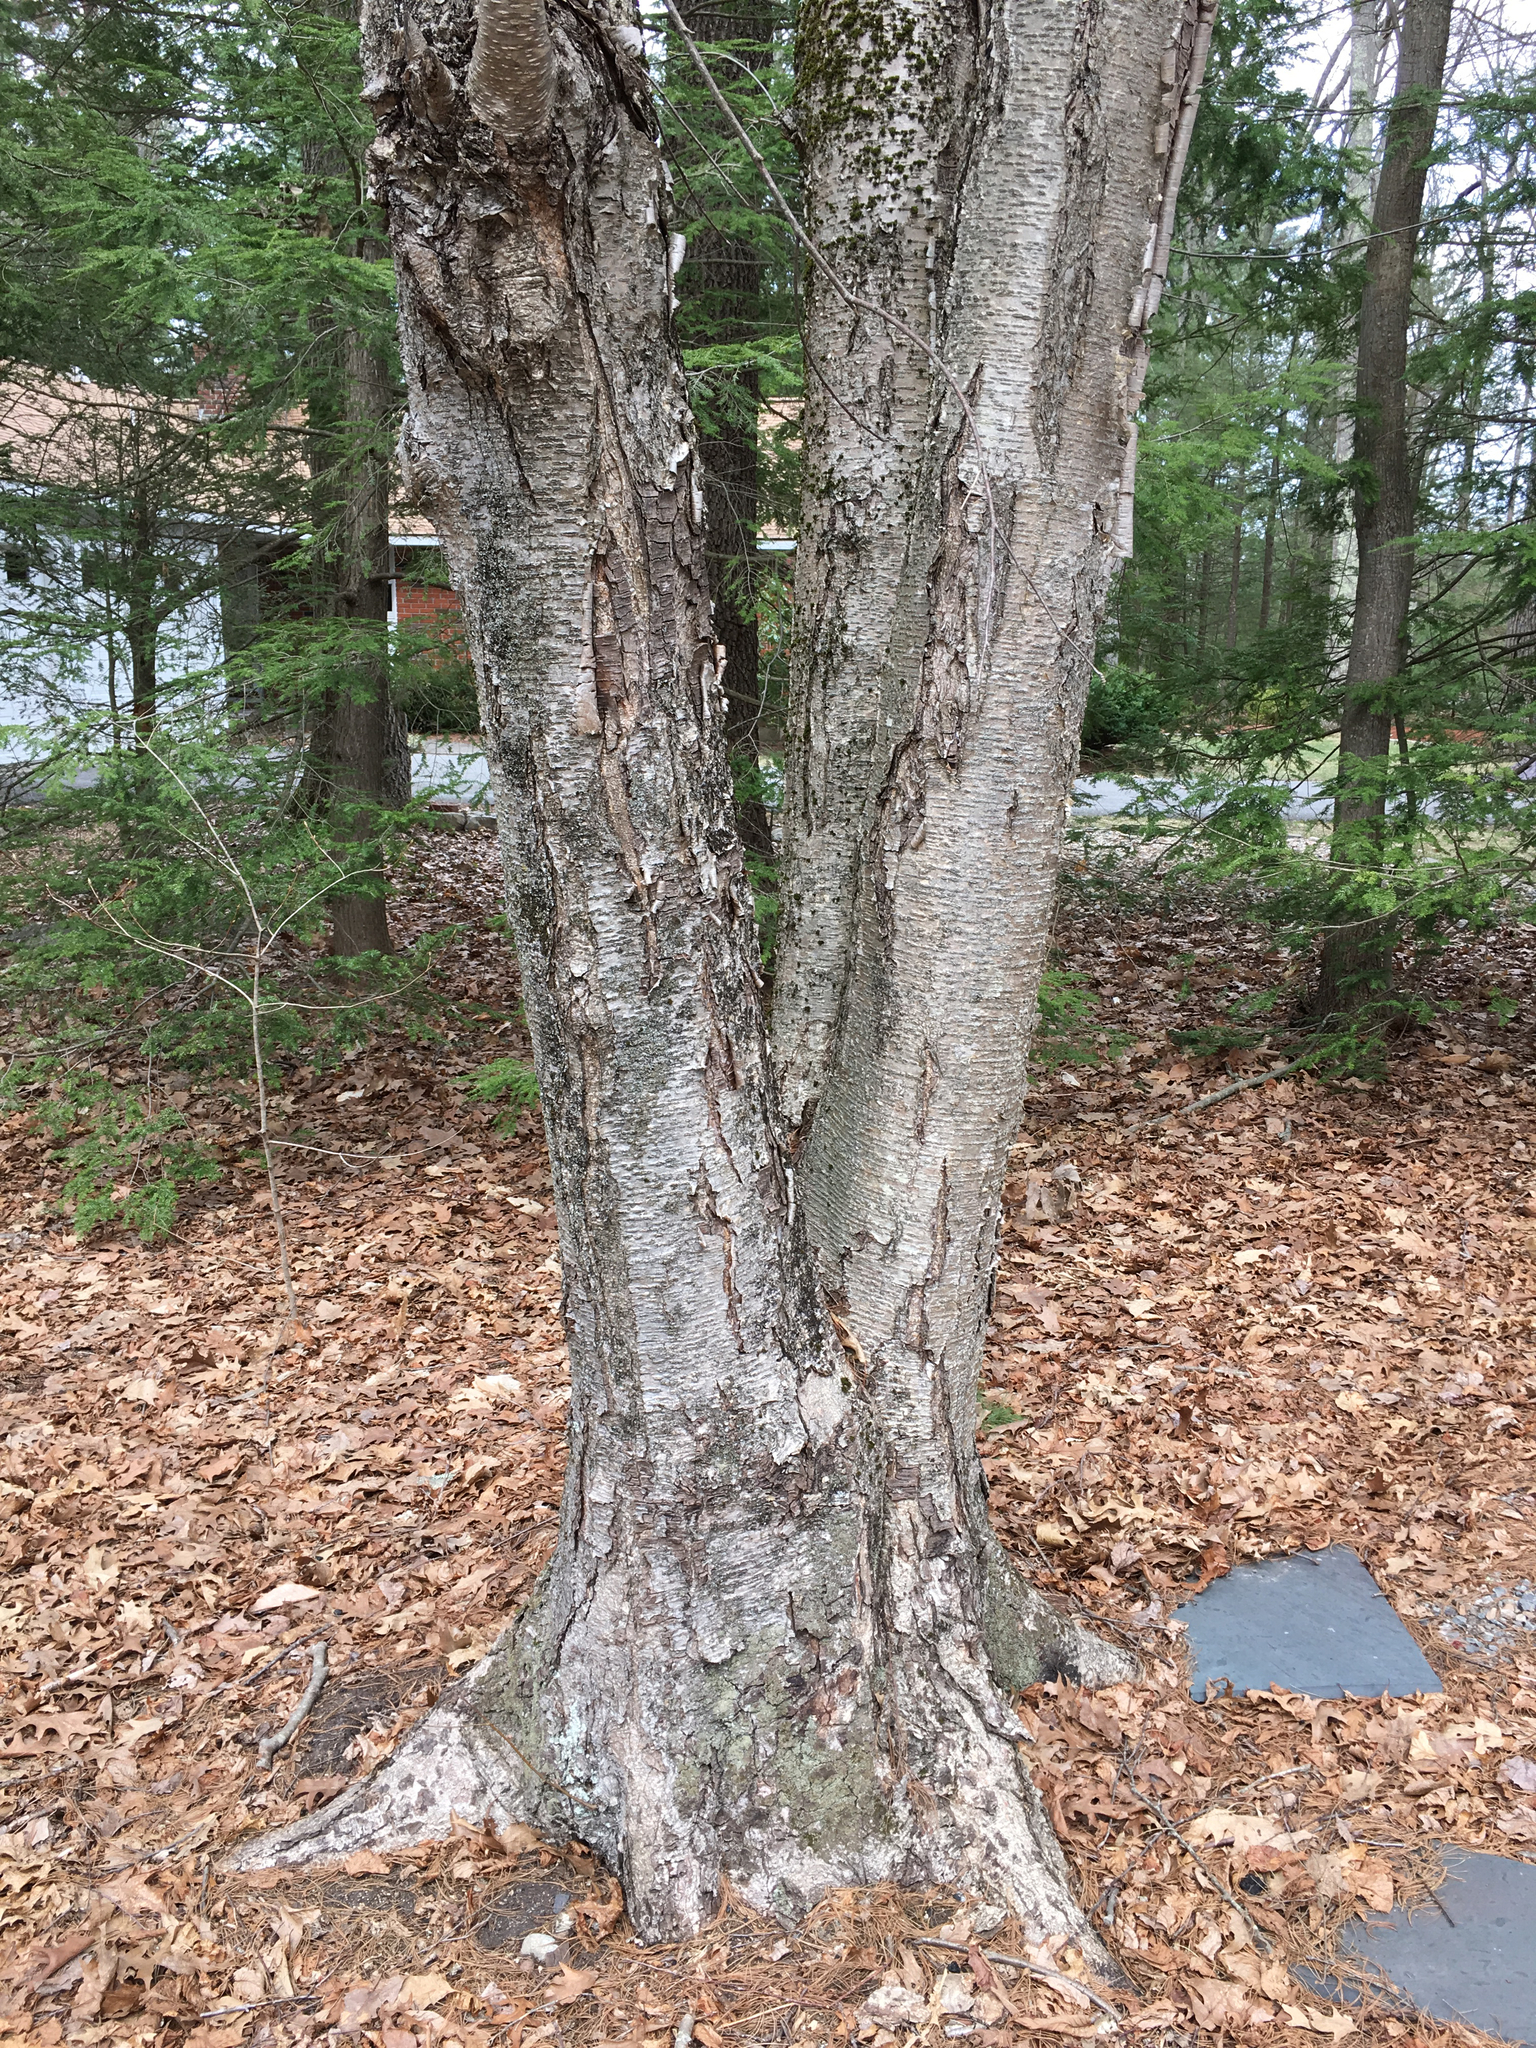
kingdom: Plantae
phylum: Tracheophyta
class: Magnoliopsida
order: Fagales
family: Betulaceae
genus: Betula
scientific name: Betula alleghaniensis
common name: Yellow birch
